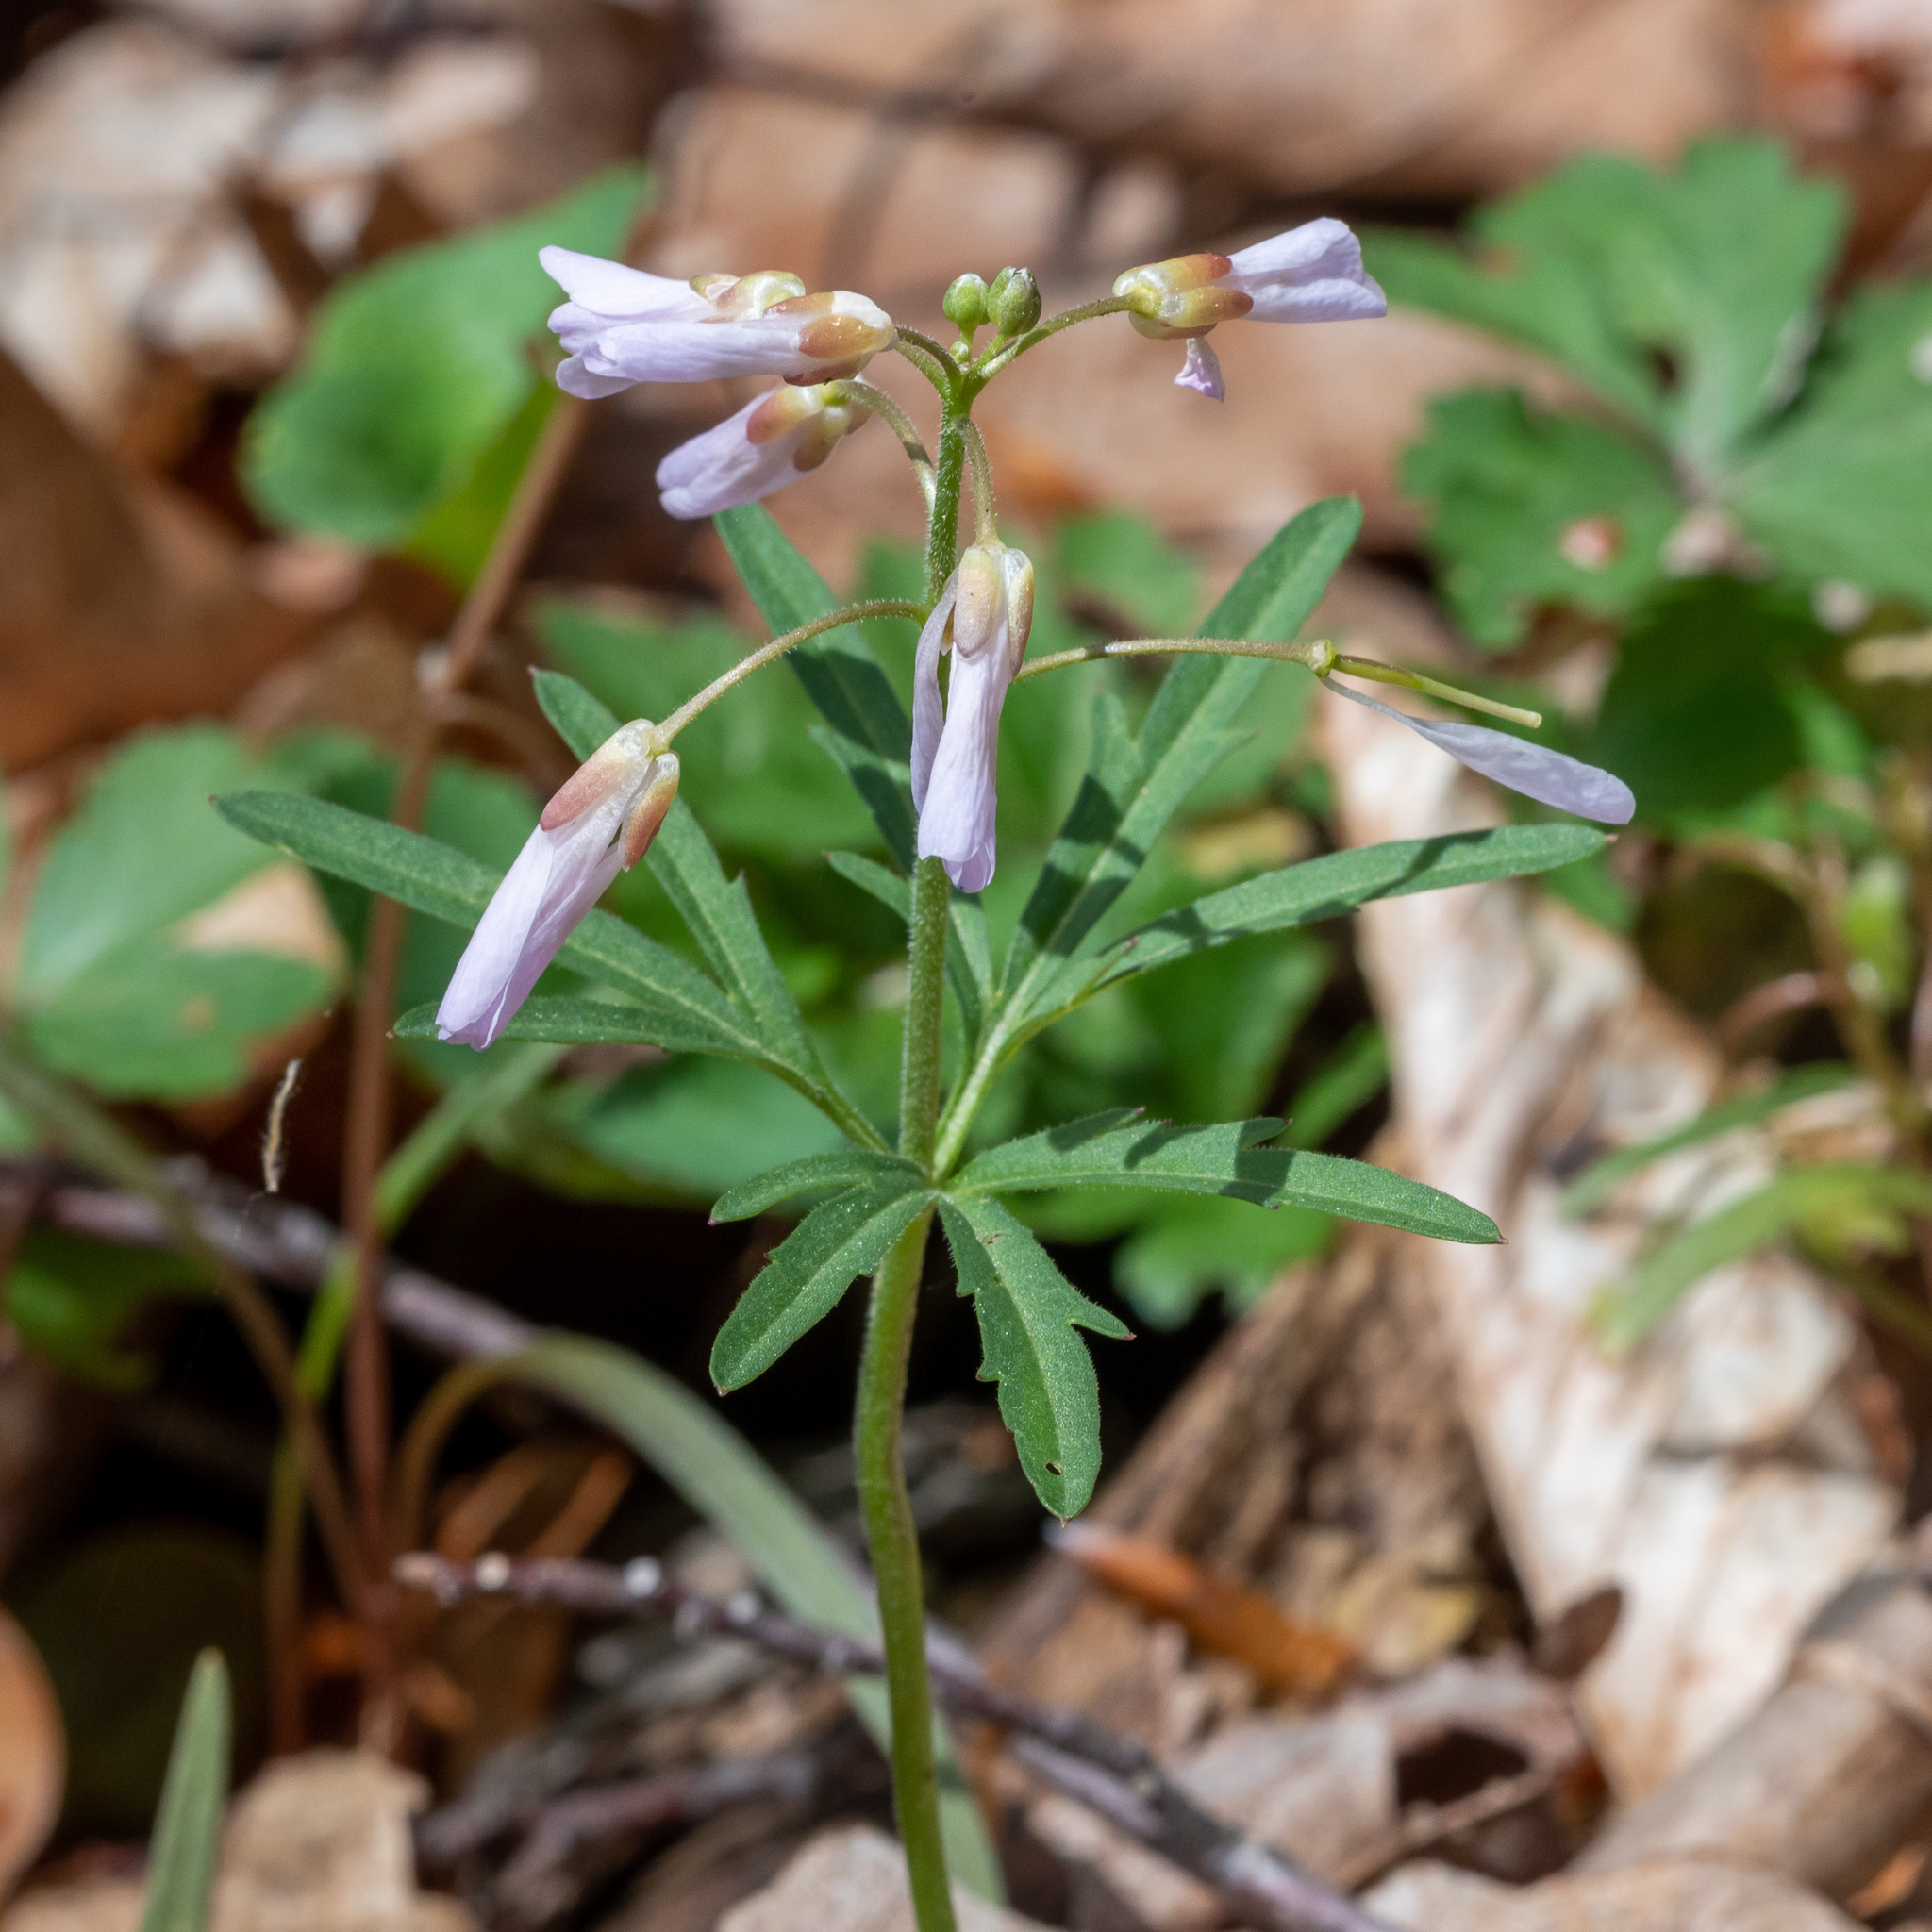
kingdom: Plantae
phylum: Tracheophyta
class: Magnoliopsida
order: Brassicales
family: Brassicaceae
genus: Cardamine
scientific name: Cardamine concatenata
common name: Cut-leaf toothcup
